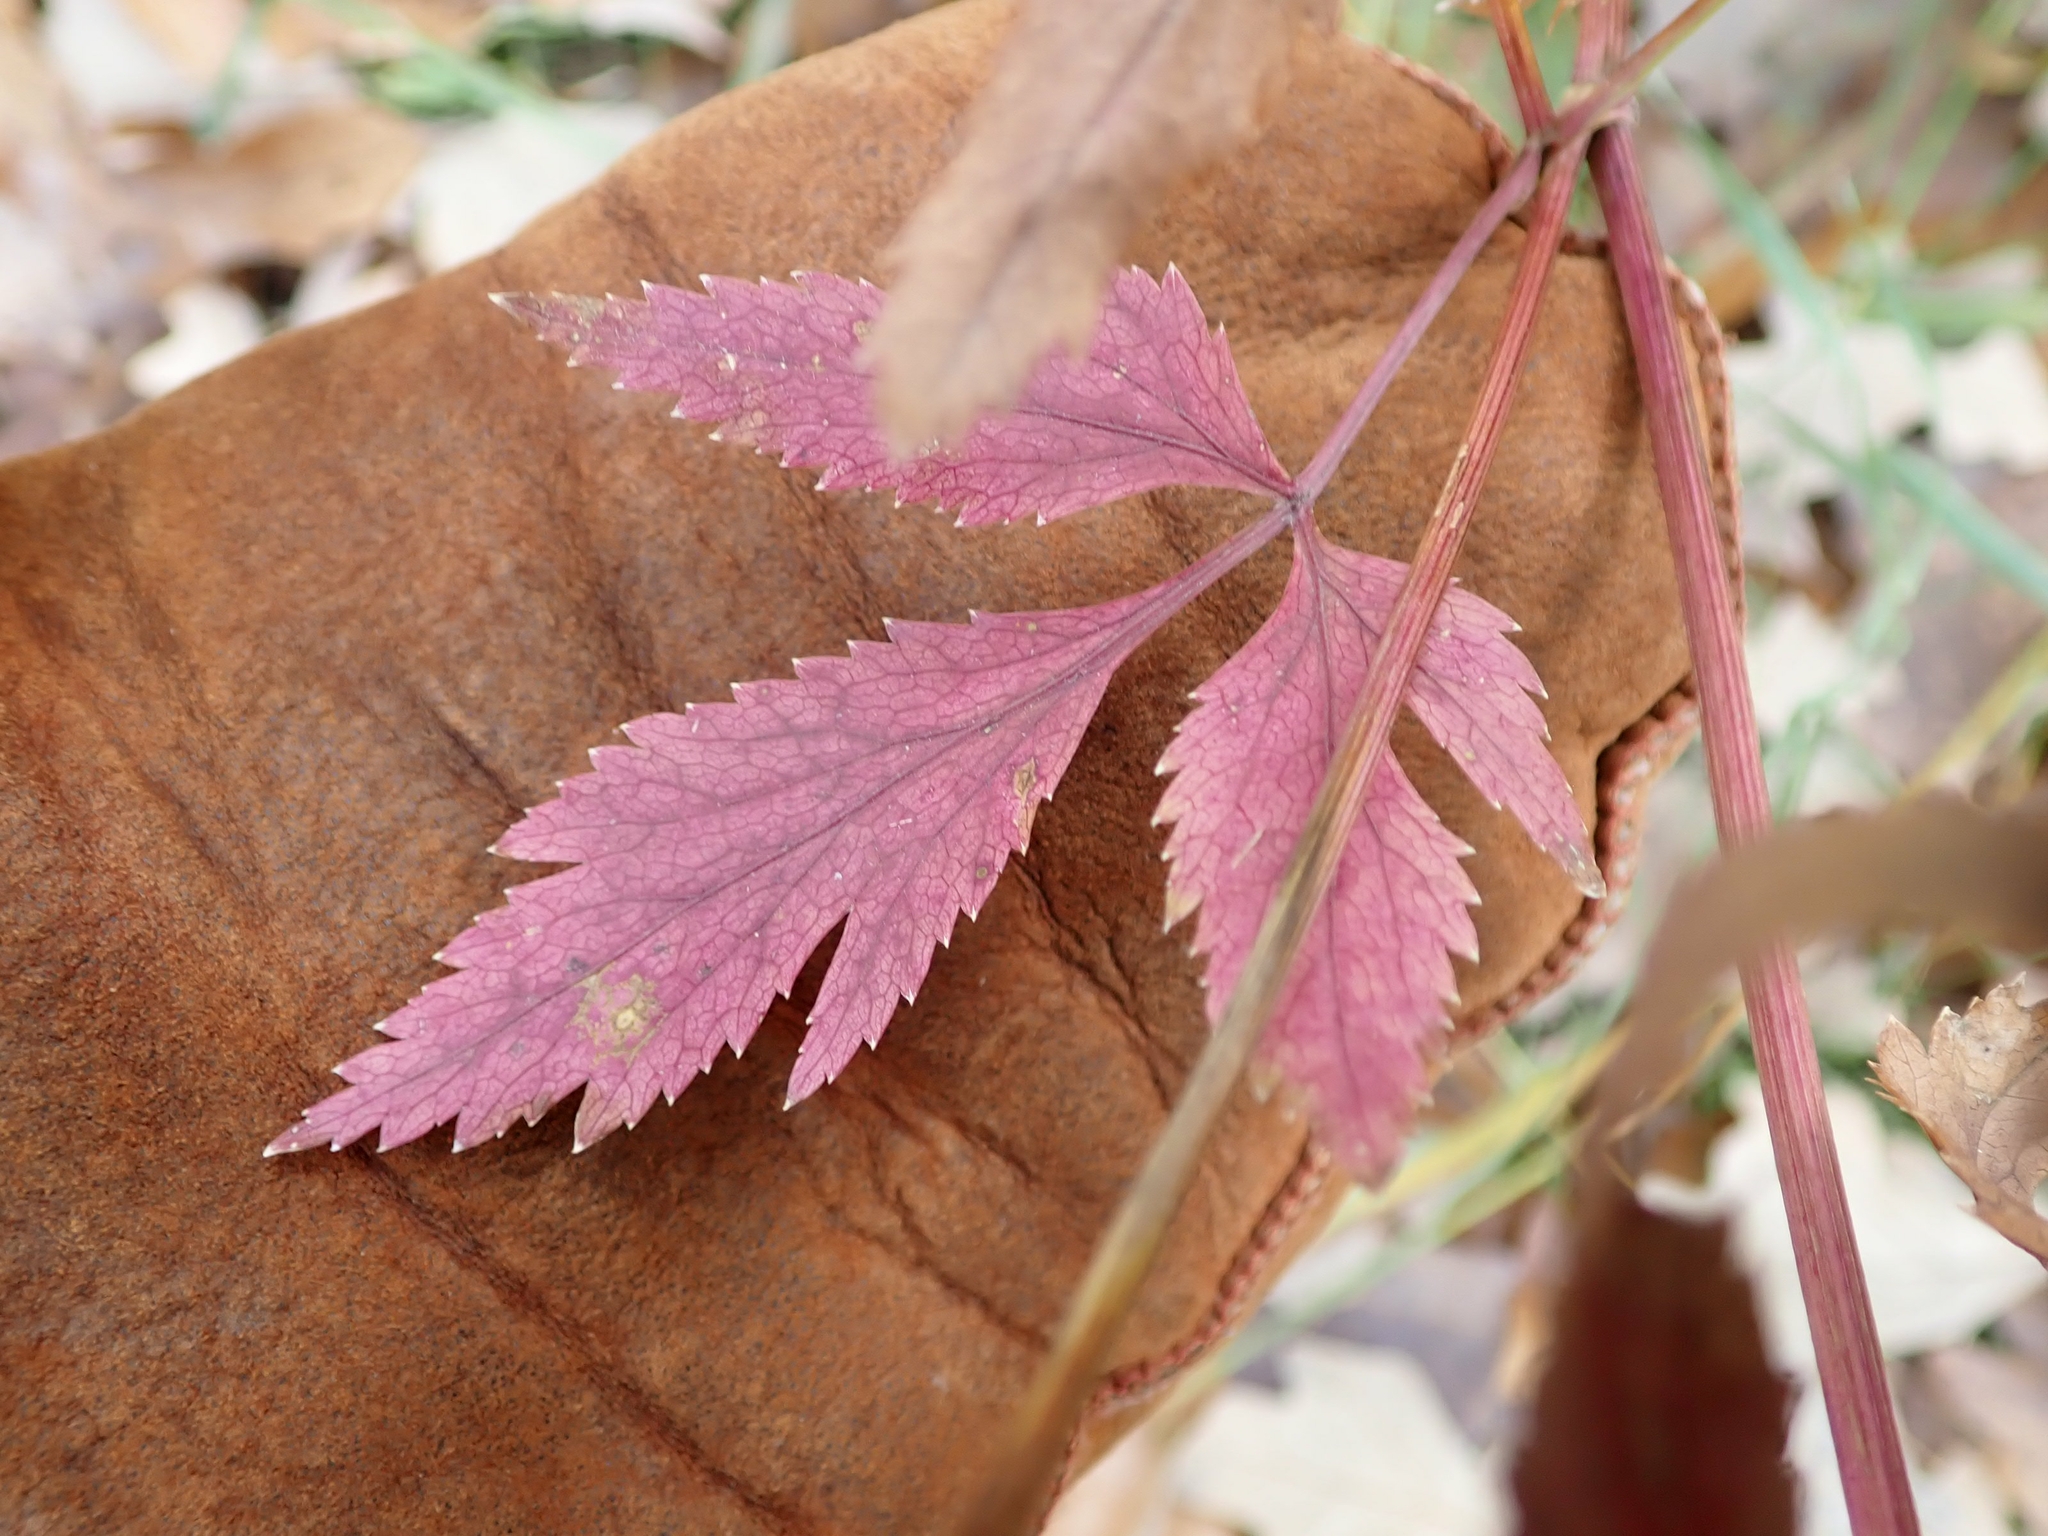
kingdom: Plantae
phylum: Tracheophyta
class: Magnoliopsida
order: Apiales
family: Apiaceae
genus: Zizia
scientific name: Zizia aurea
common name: Golden alexanders
